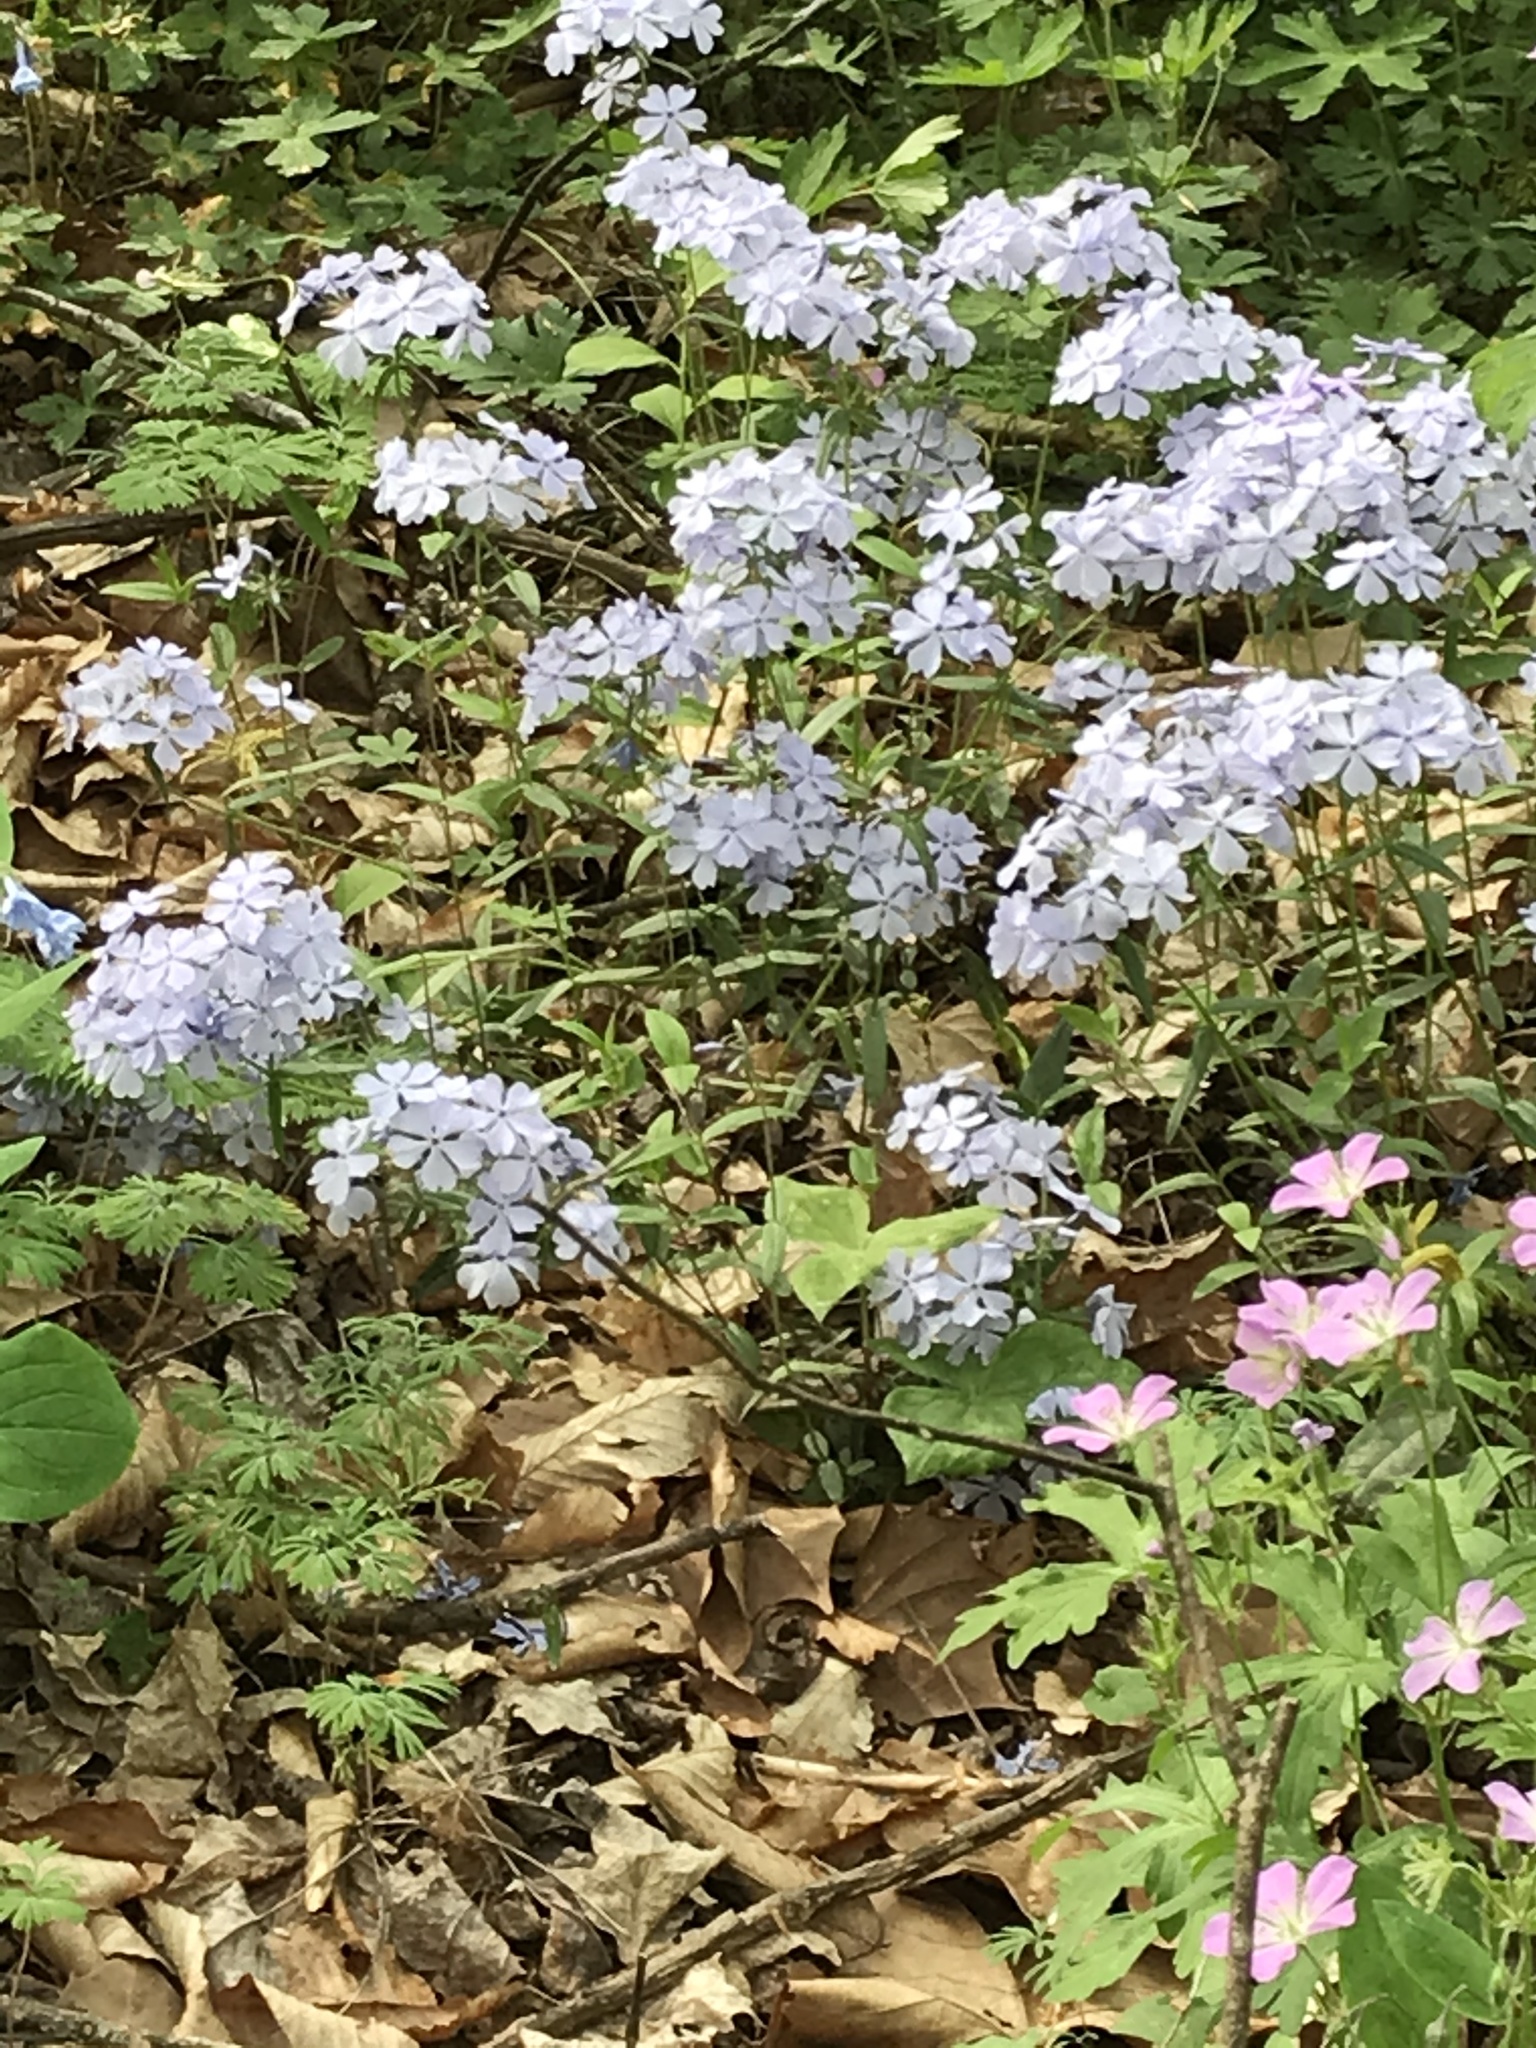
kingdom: Plantae
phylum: Tracheophyta
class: Magnoliopsida
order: Ericales
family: Polemoniaceae
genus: Phlox
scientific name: Phlox divaricata
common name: Blue phlox
